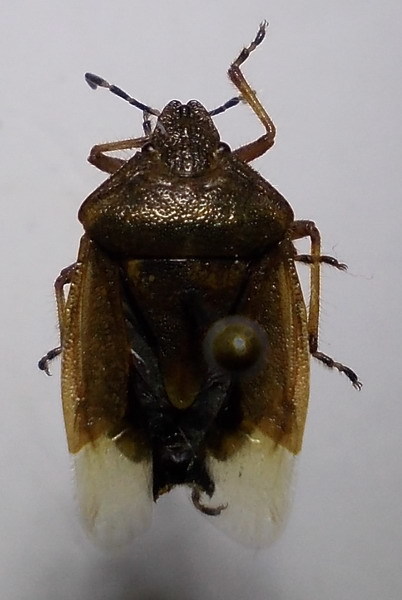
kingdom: Animalia
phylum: Arthropoda
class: Insecta
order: Hemiptera
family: Pentatomidae
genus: Dolycoris
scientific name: Dolycoris baccarum
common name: Sloe bug
